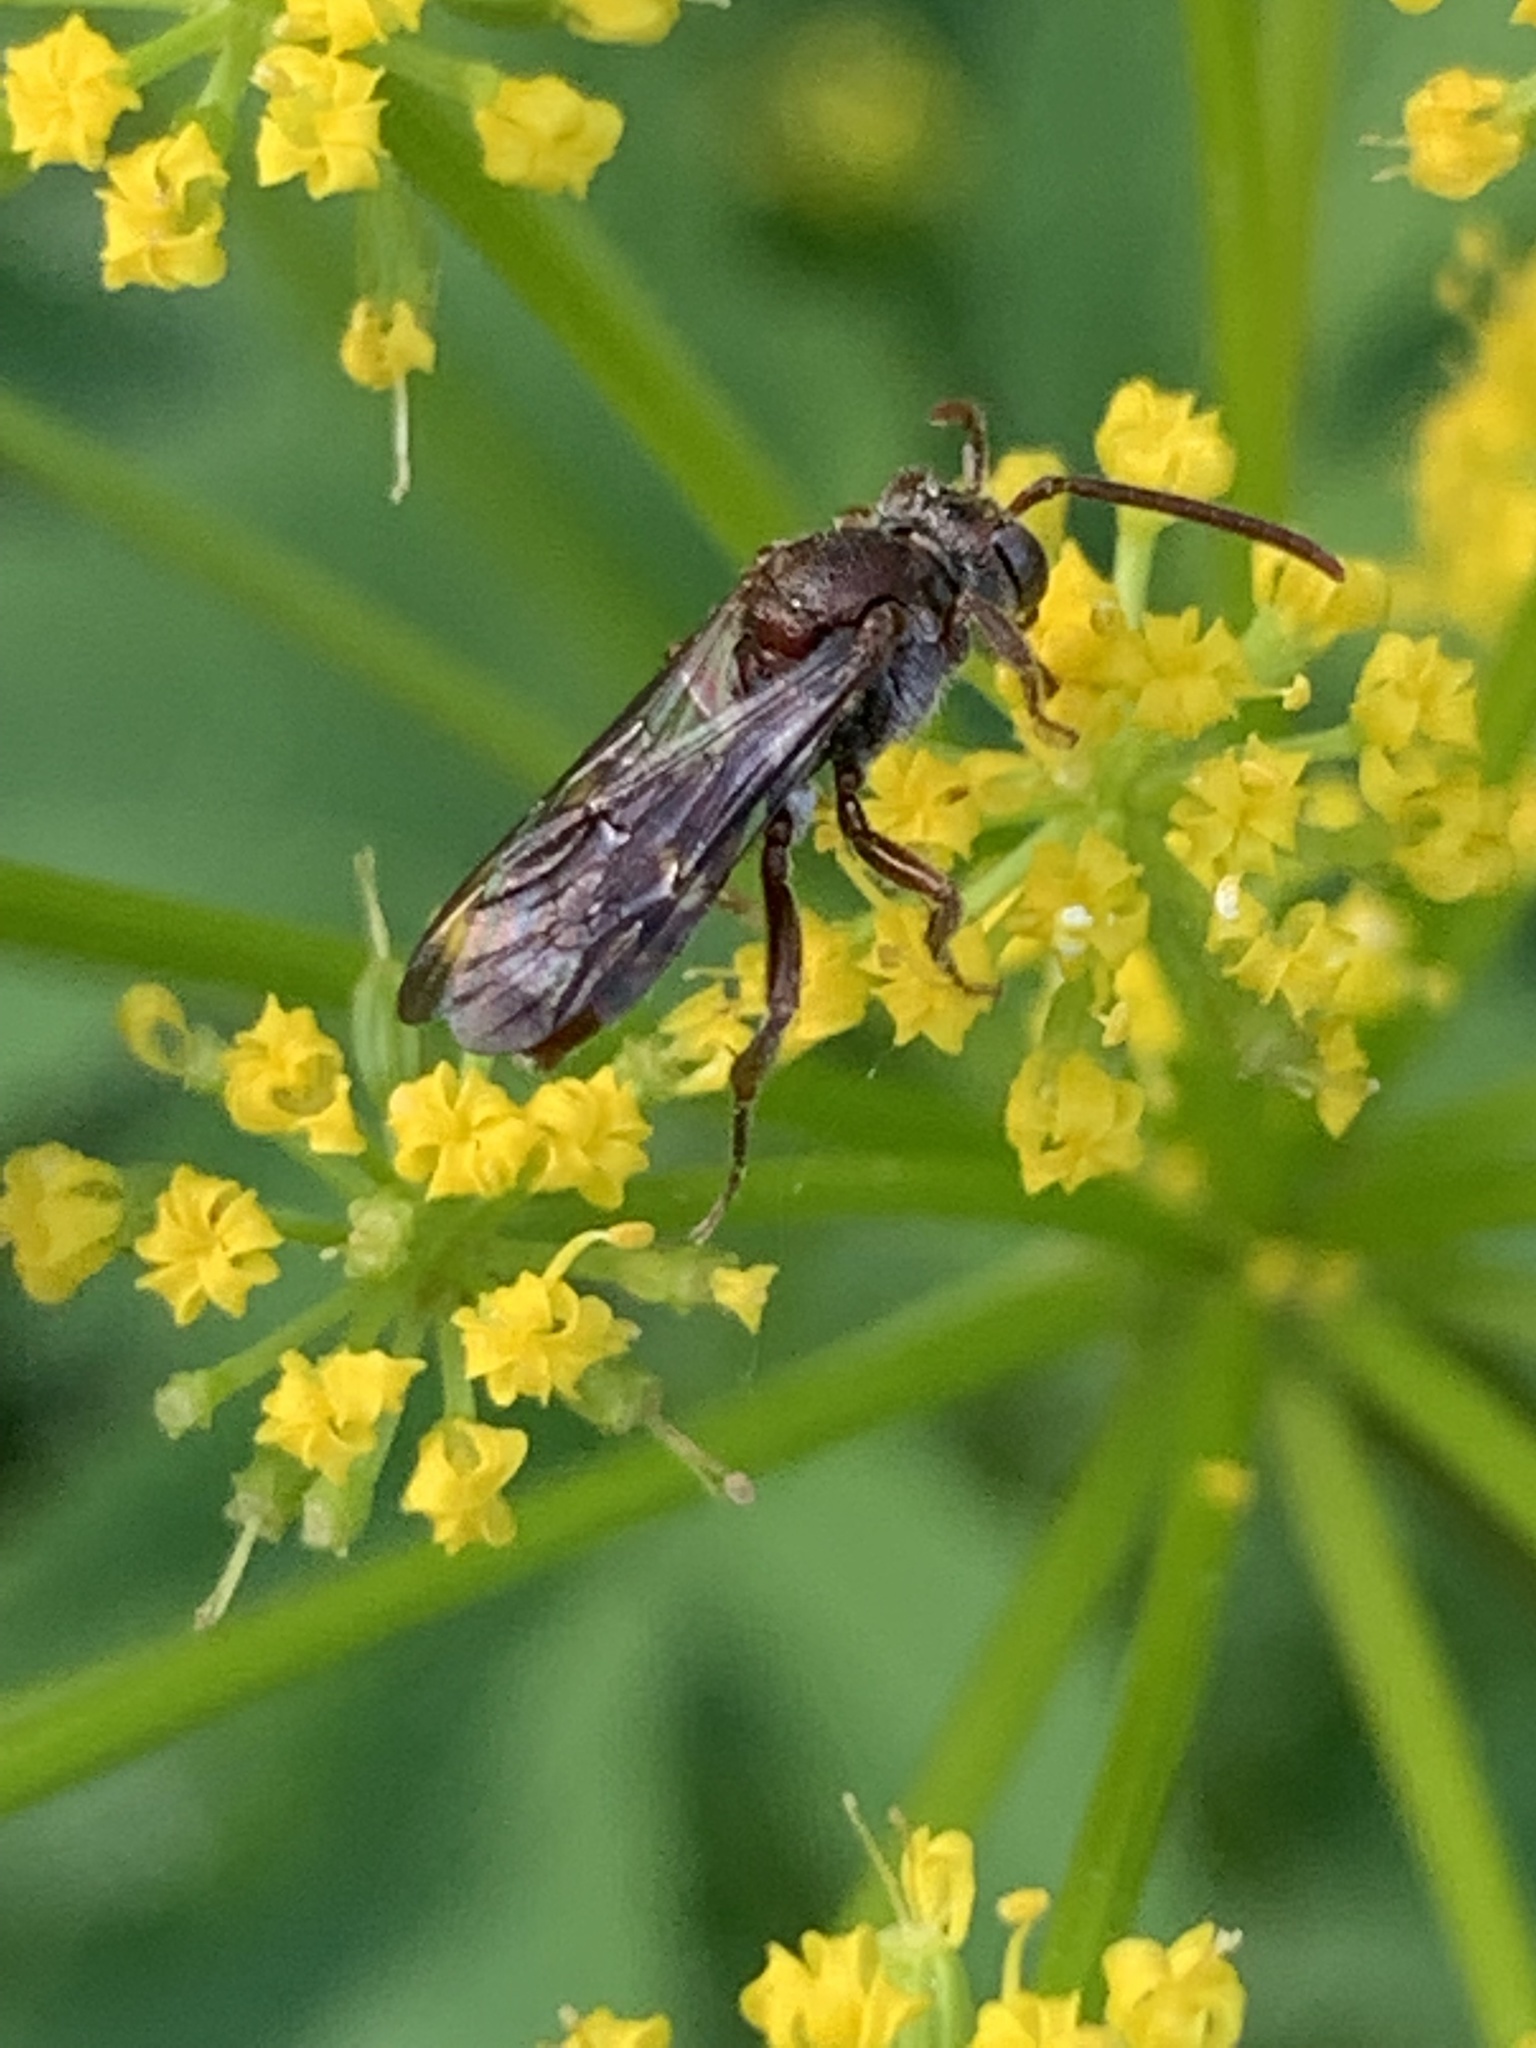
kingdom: Animalia
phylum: Arthropoda
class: Insecta
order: Hymenoptera
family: Apidae
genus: Nomada
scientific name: Nomada
